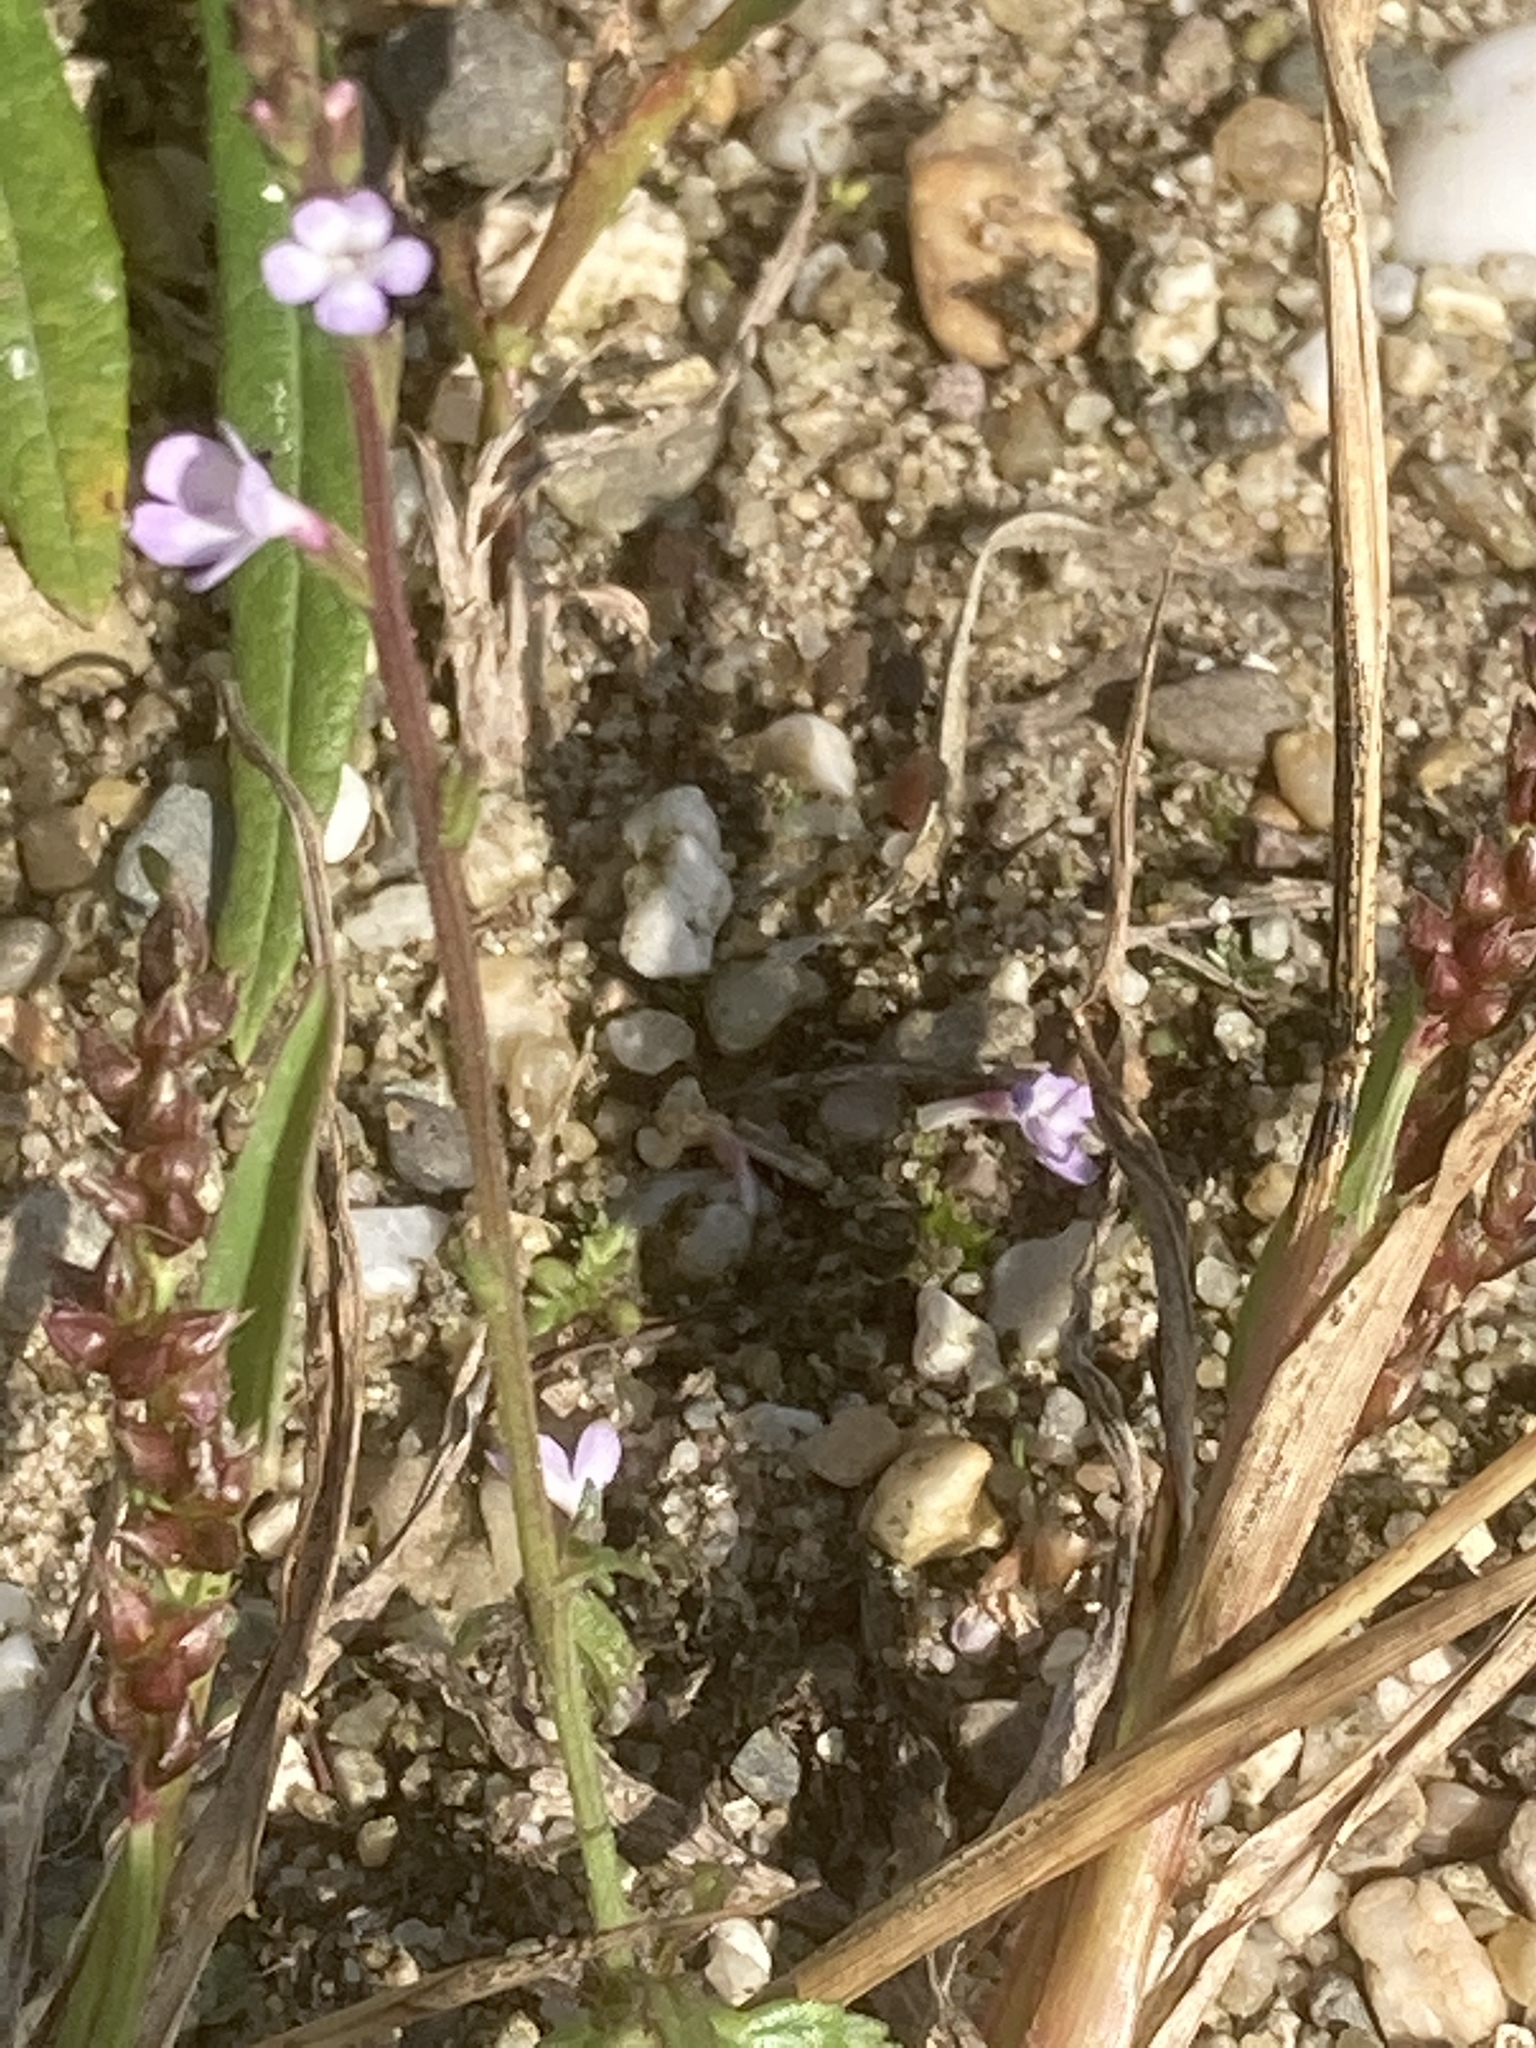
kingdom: Plantae
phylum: Tracheophyta
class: Magnoliopsida
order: Lamiales
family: Verbenaceae
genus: Verbena
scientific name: Verbena officinalis
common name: Vervain
